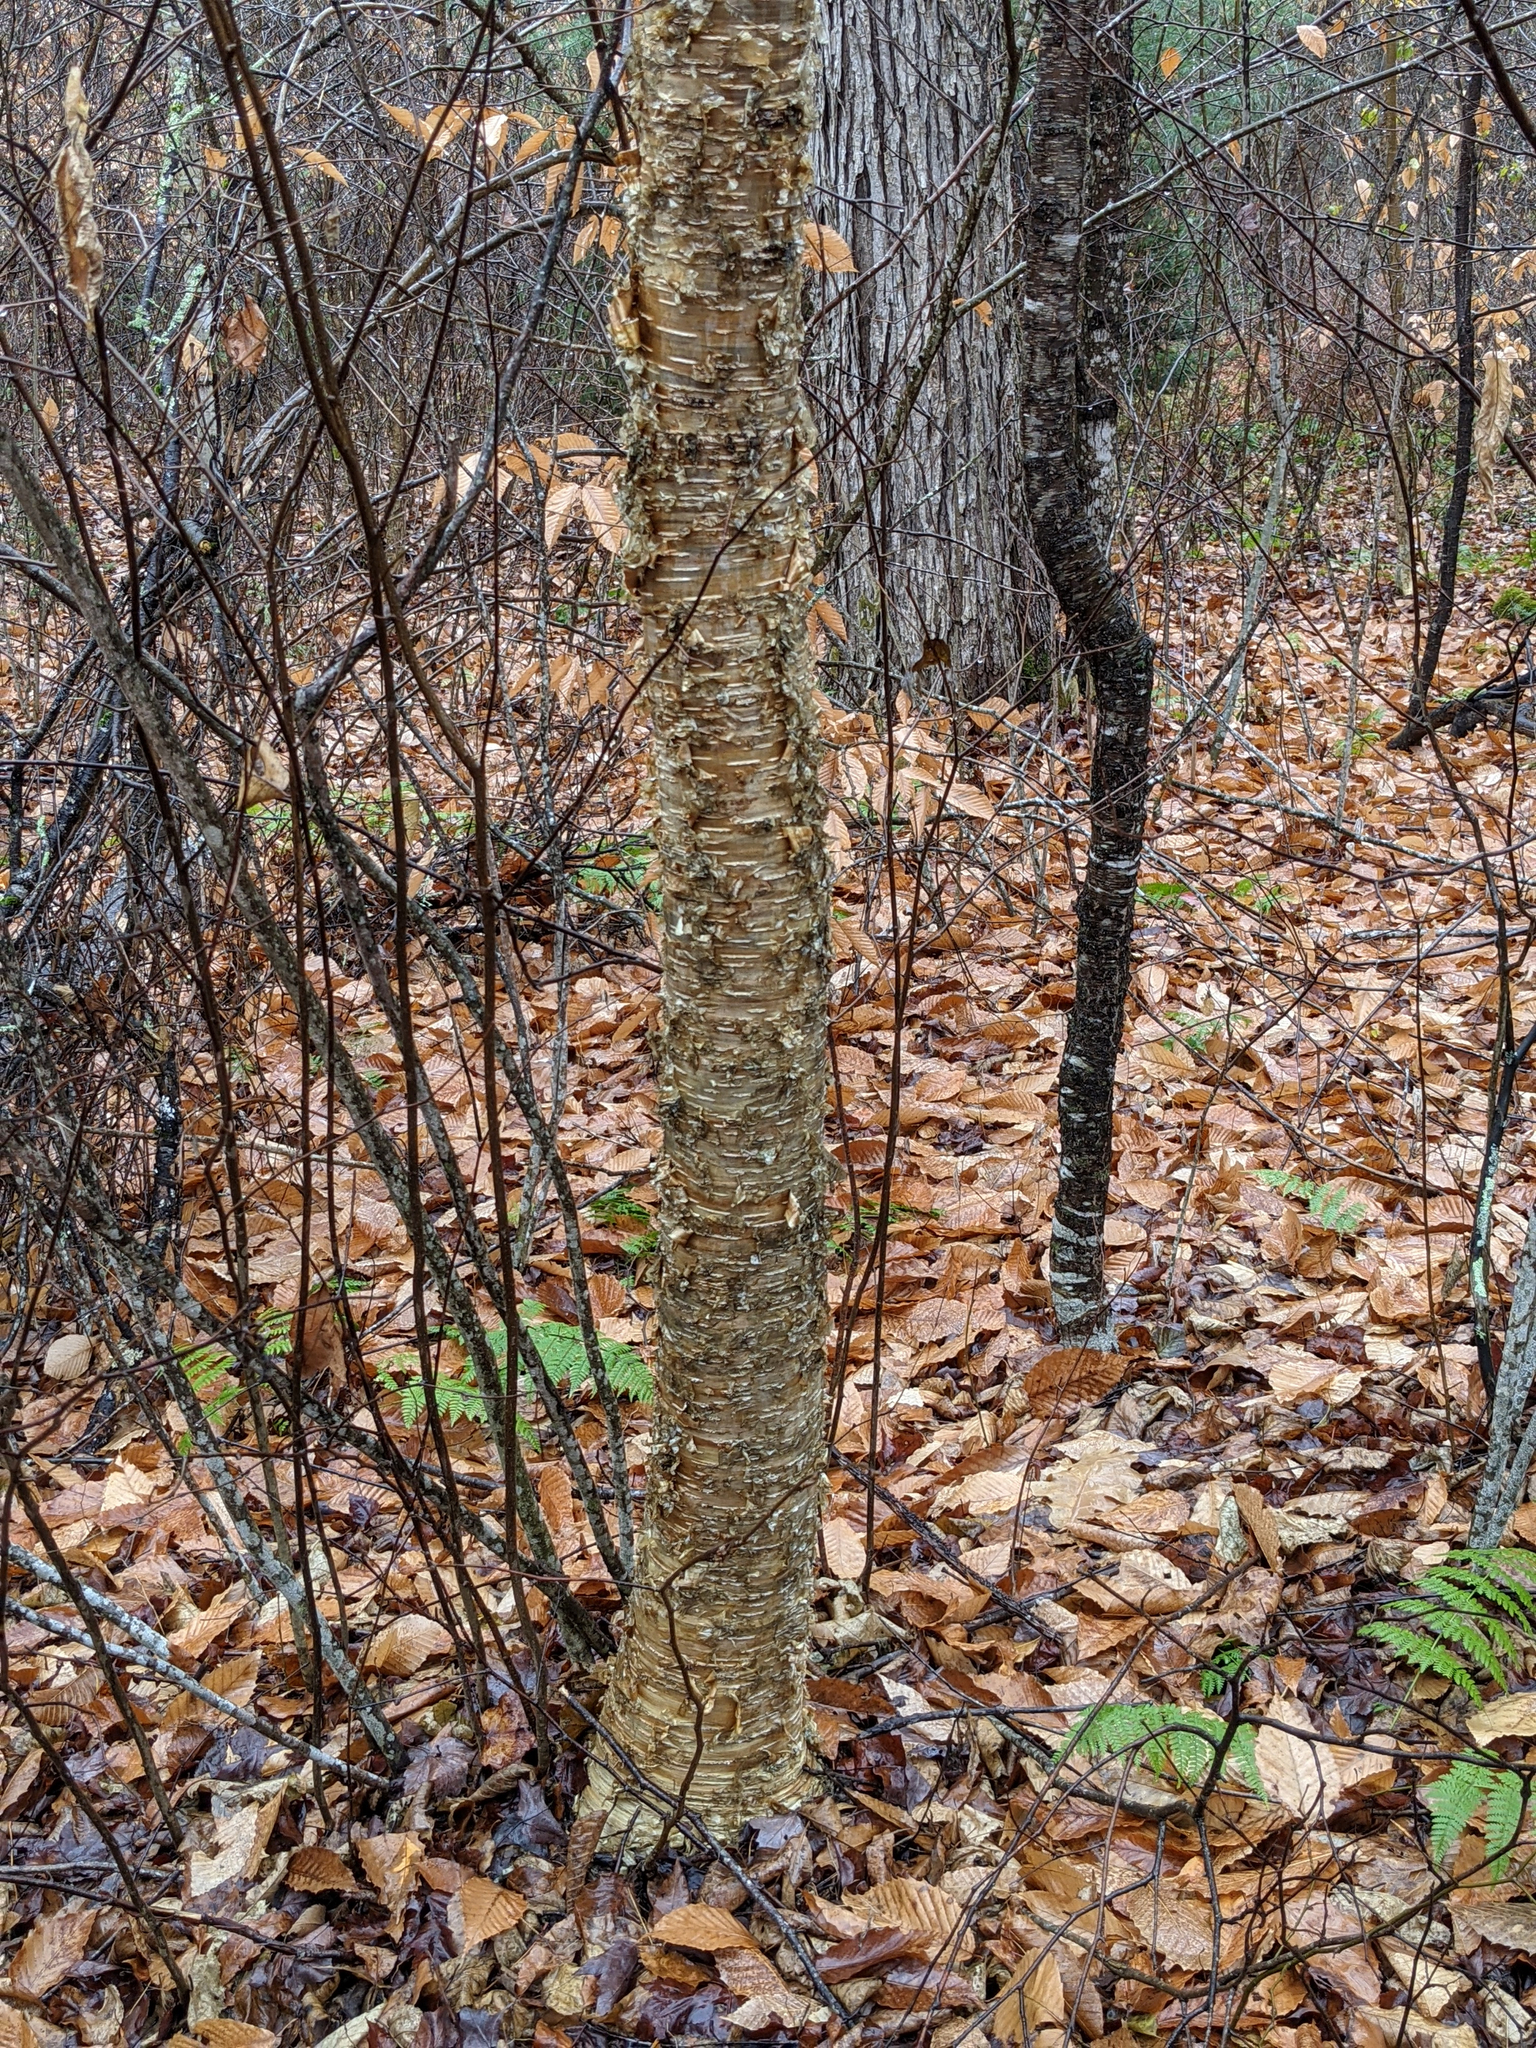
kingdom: Plantae
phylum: Tracheophyta
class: Magnoliopsida
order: Fagales
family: Betulaceae
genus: Betula
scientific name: Betula alleghaniensis
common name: Yellow birch
